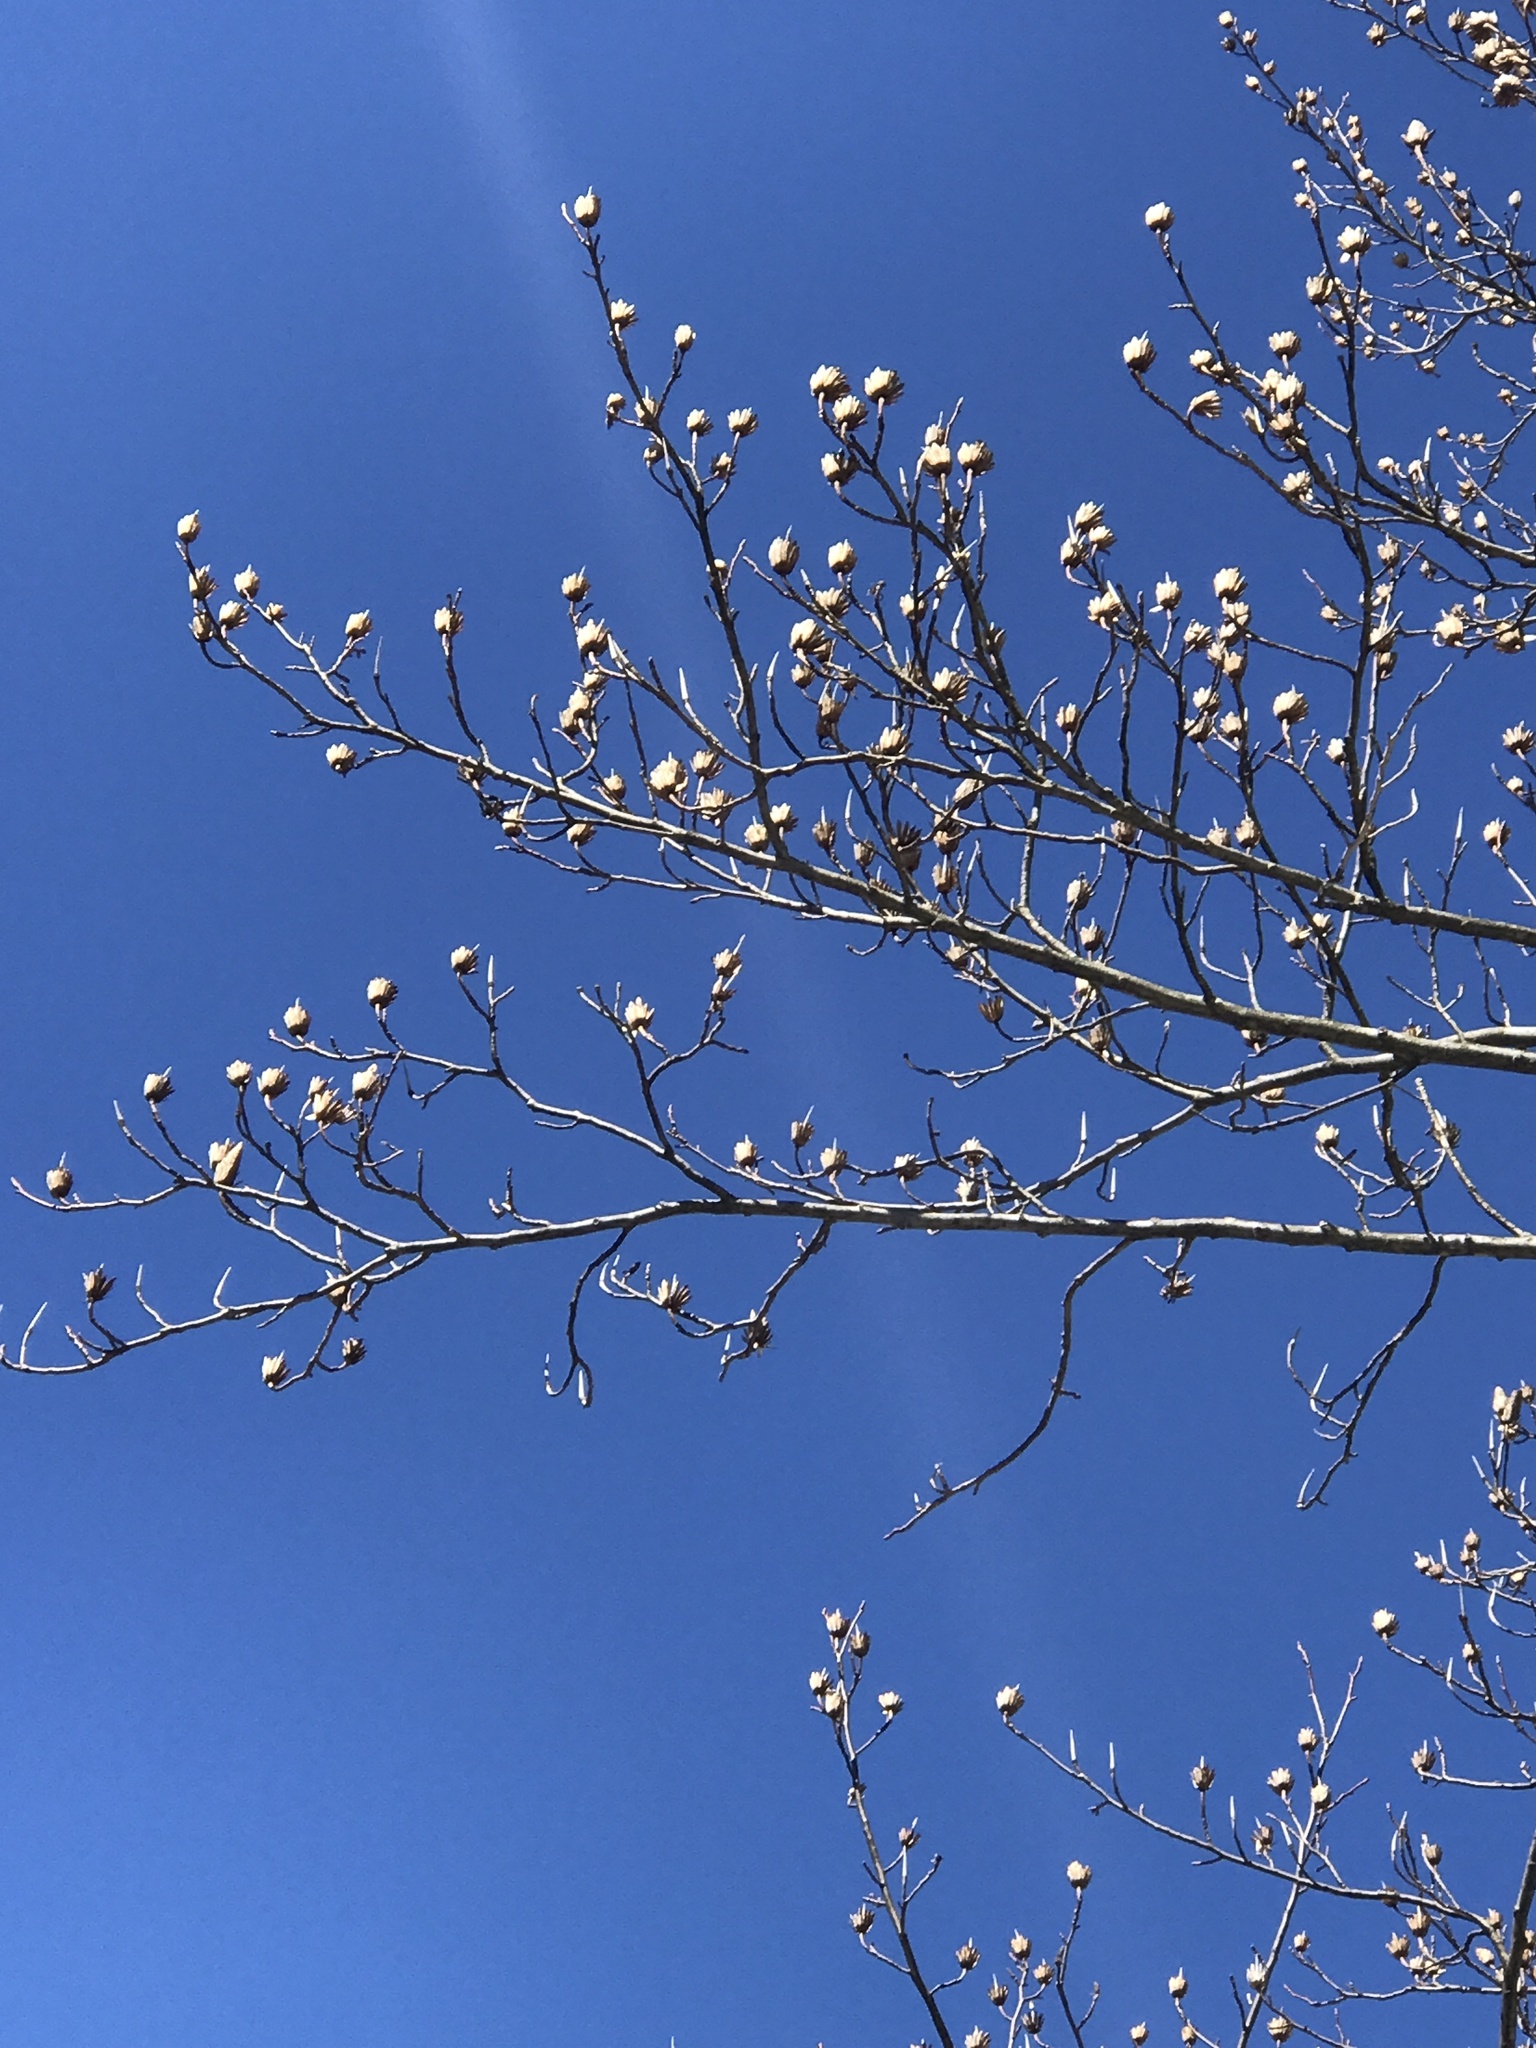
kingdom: Plantae
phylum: Tracheophyta
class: Magnoliopsida
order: Magnoliales
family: Magnoliaceae
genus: Liriodendron
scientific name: Liriodendron tulipifera
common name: Tulip tree
